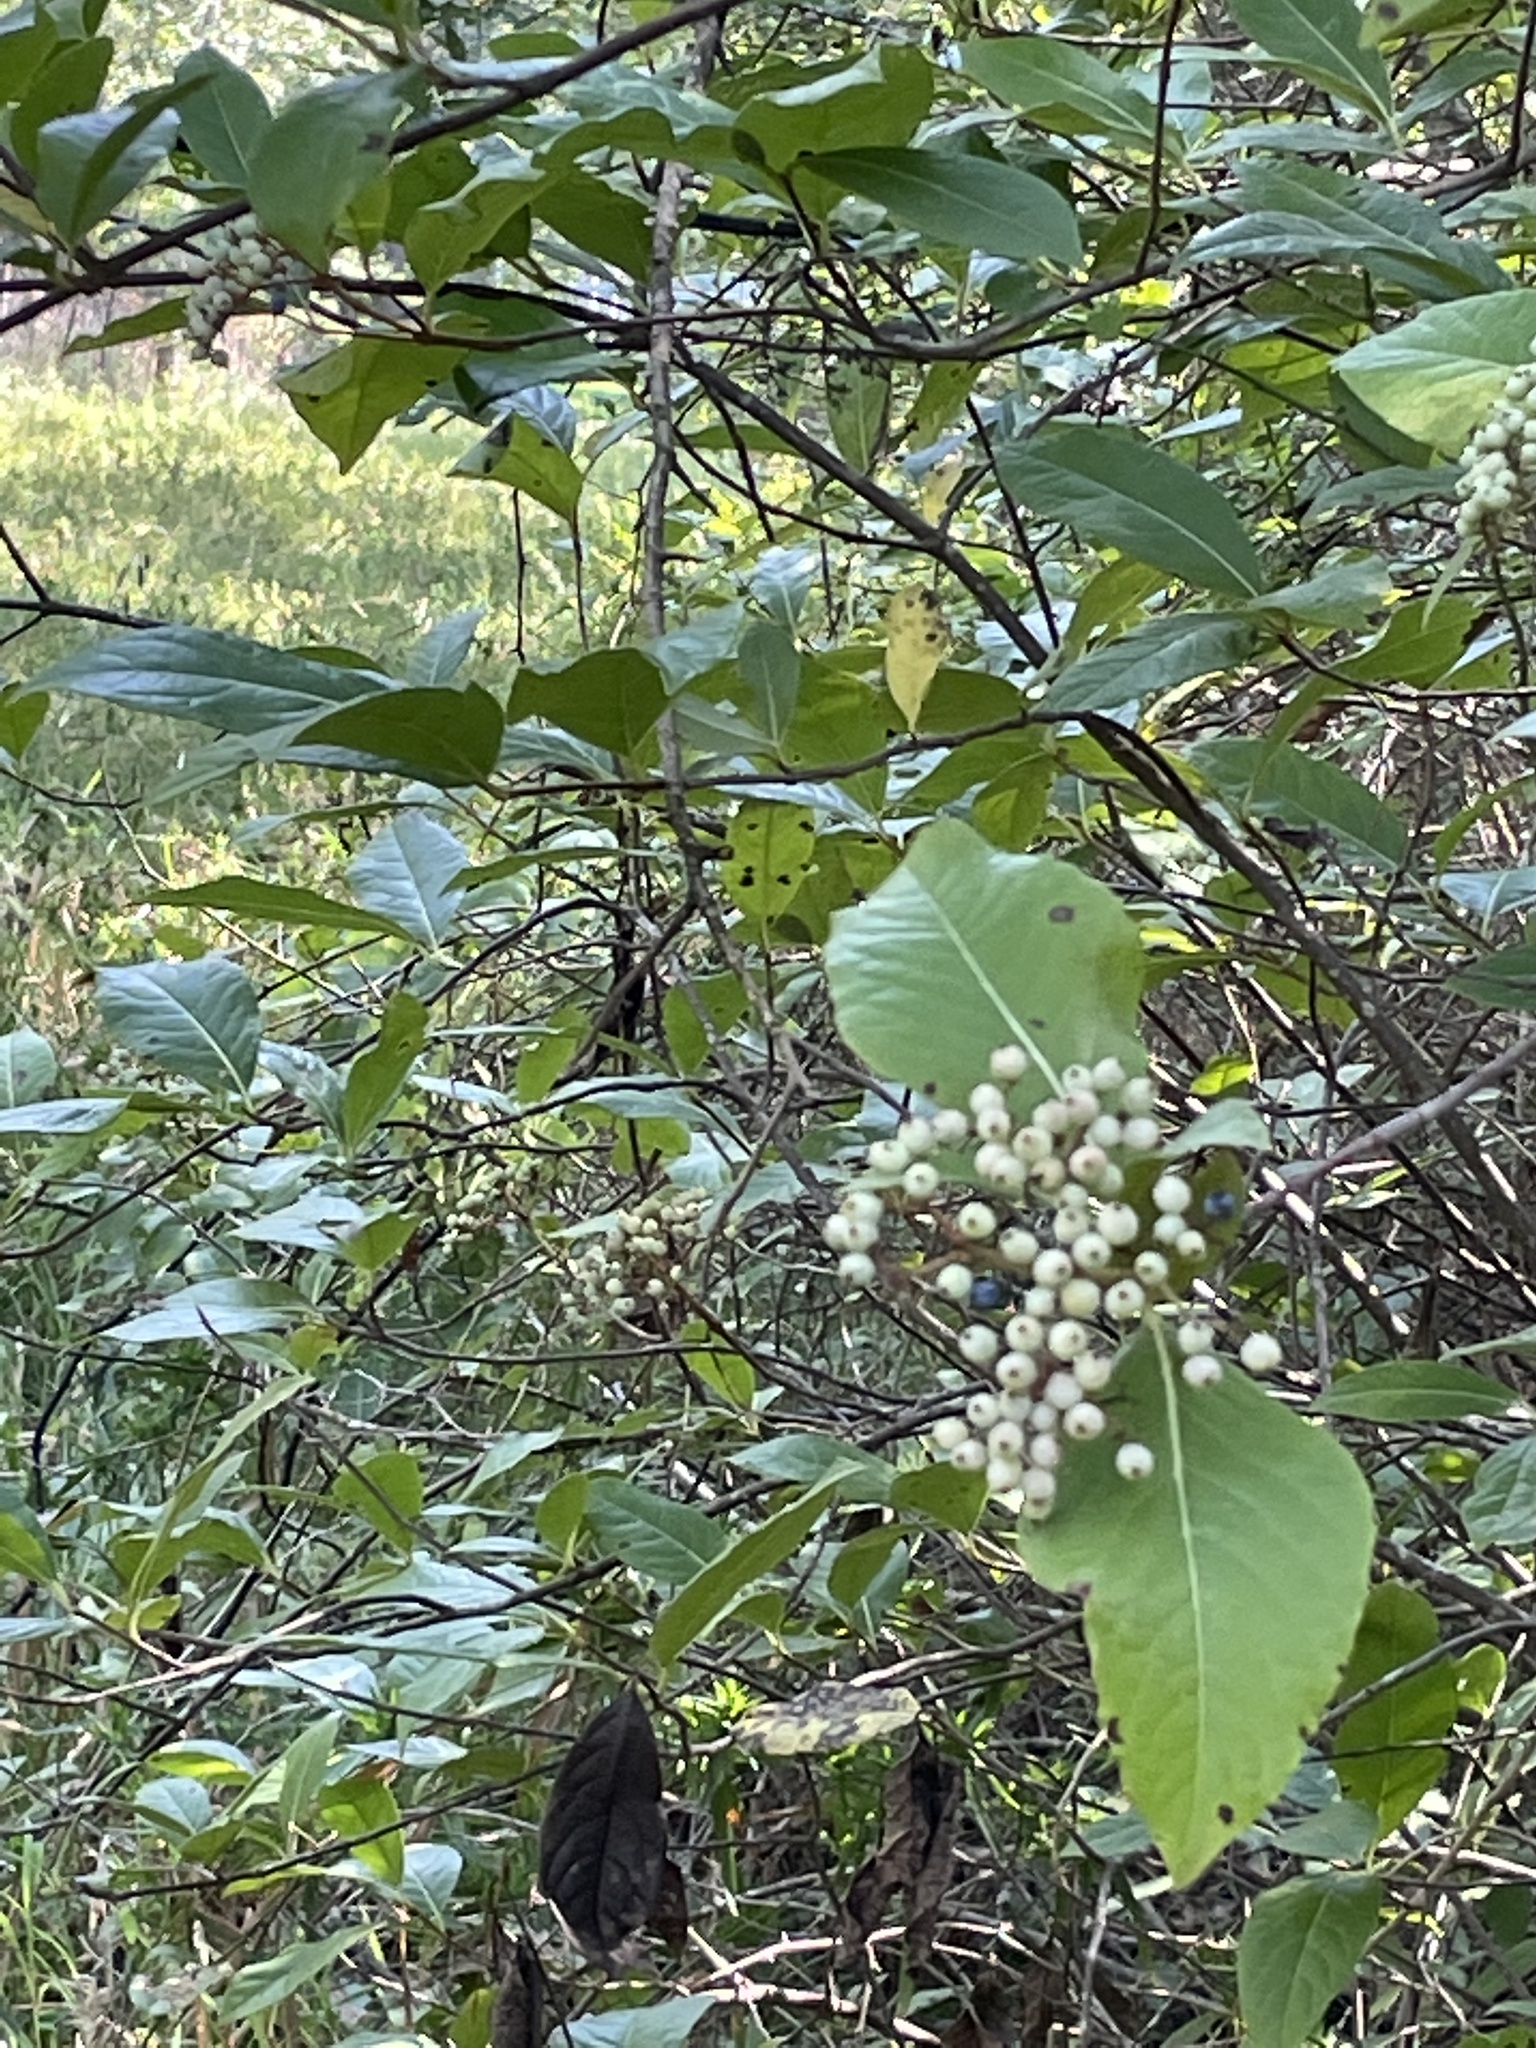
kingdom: Plantae
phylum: Tracheophyta
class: Magnoliopsida
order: Dipsacales
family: Viburnaceae
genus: Viburnum
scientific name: Viburnum nudum
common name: Possum haw
